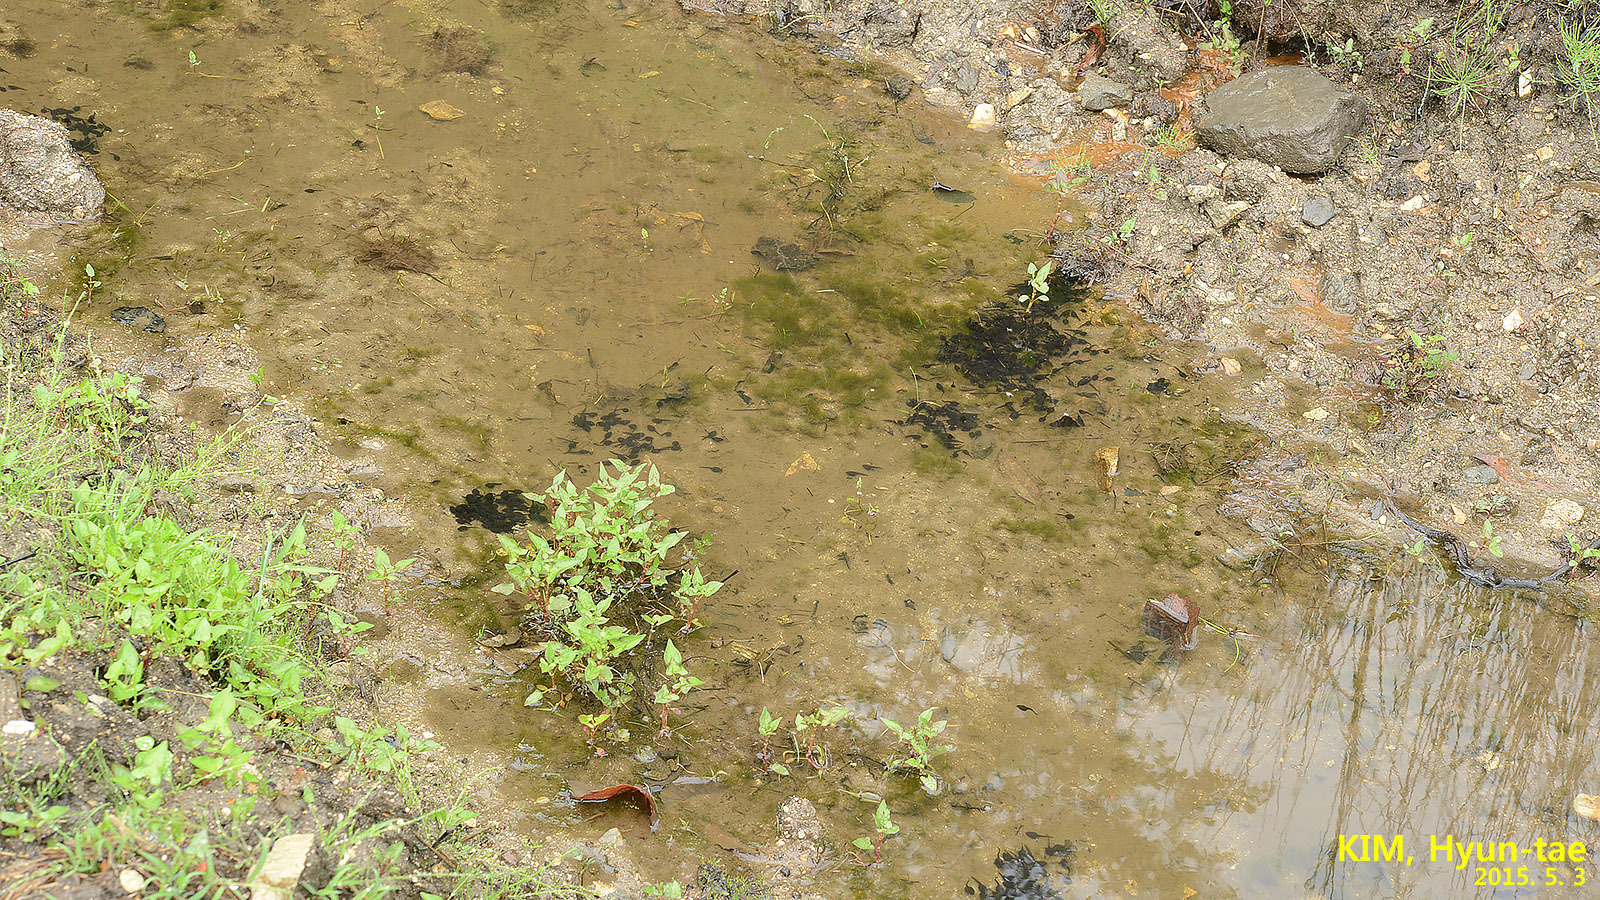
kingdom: Animalia
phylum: Chordata
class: Amphibia
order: Anura
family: Bufonidae
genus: Bufo
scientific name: Bufo gargarizans
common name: Asiatic toad
